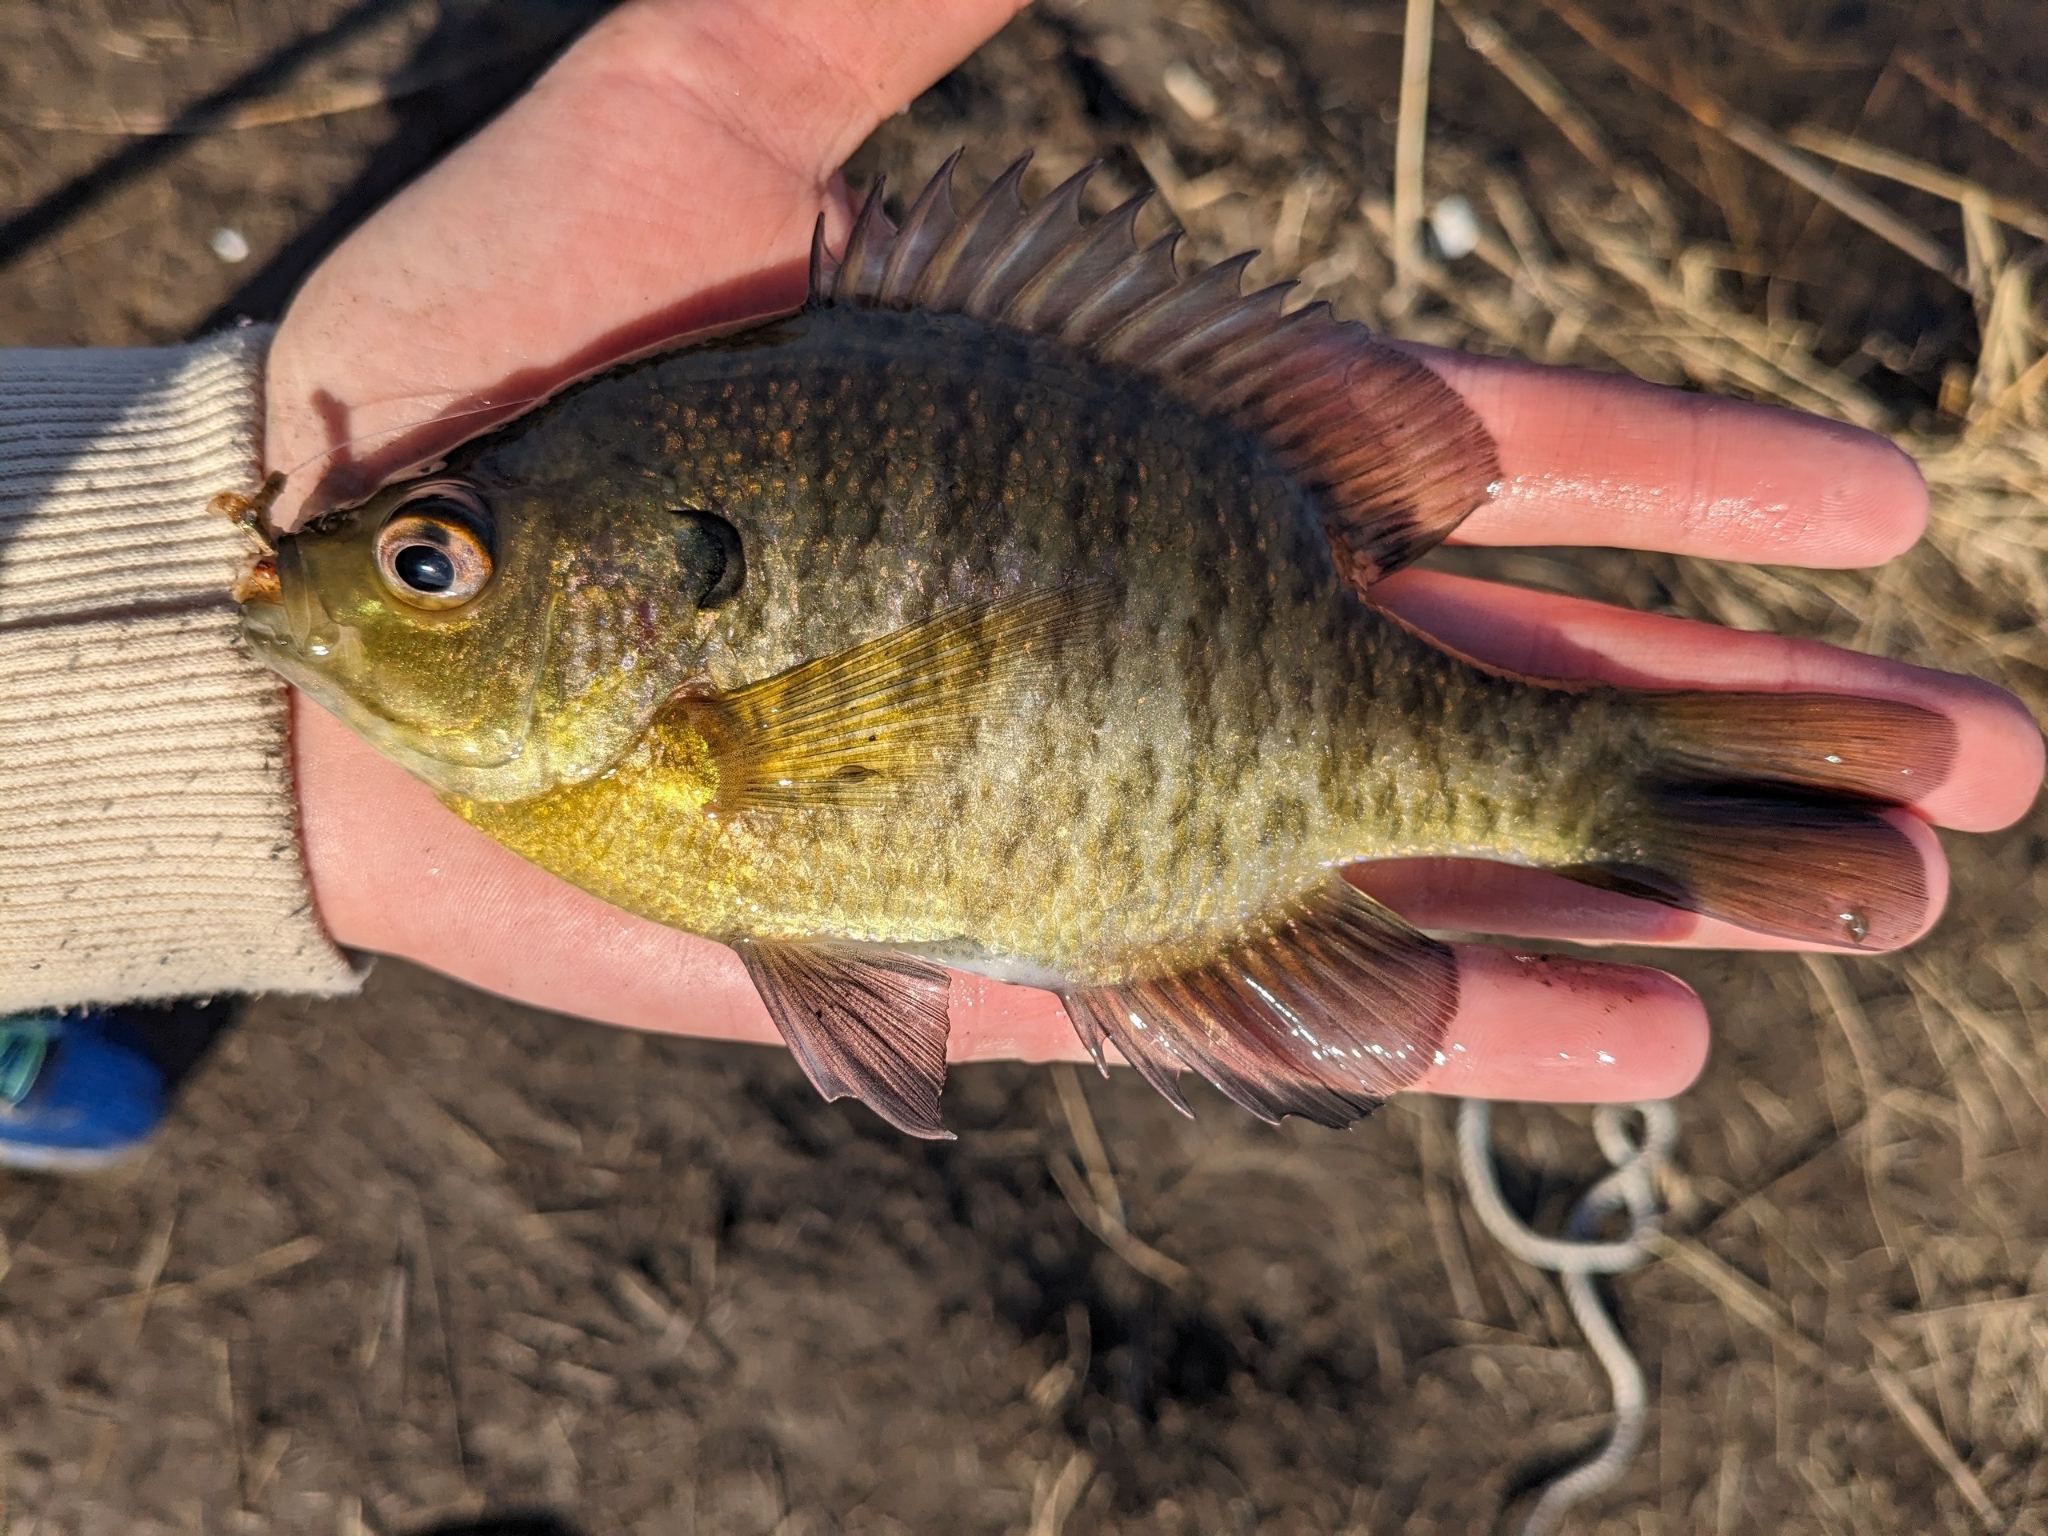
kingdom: Animalia
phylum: Chordata
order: Perciformes
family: Centrarchidae
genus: Lepomis
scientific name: Lepomis macrochirus
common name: Bluegill
